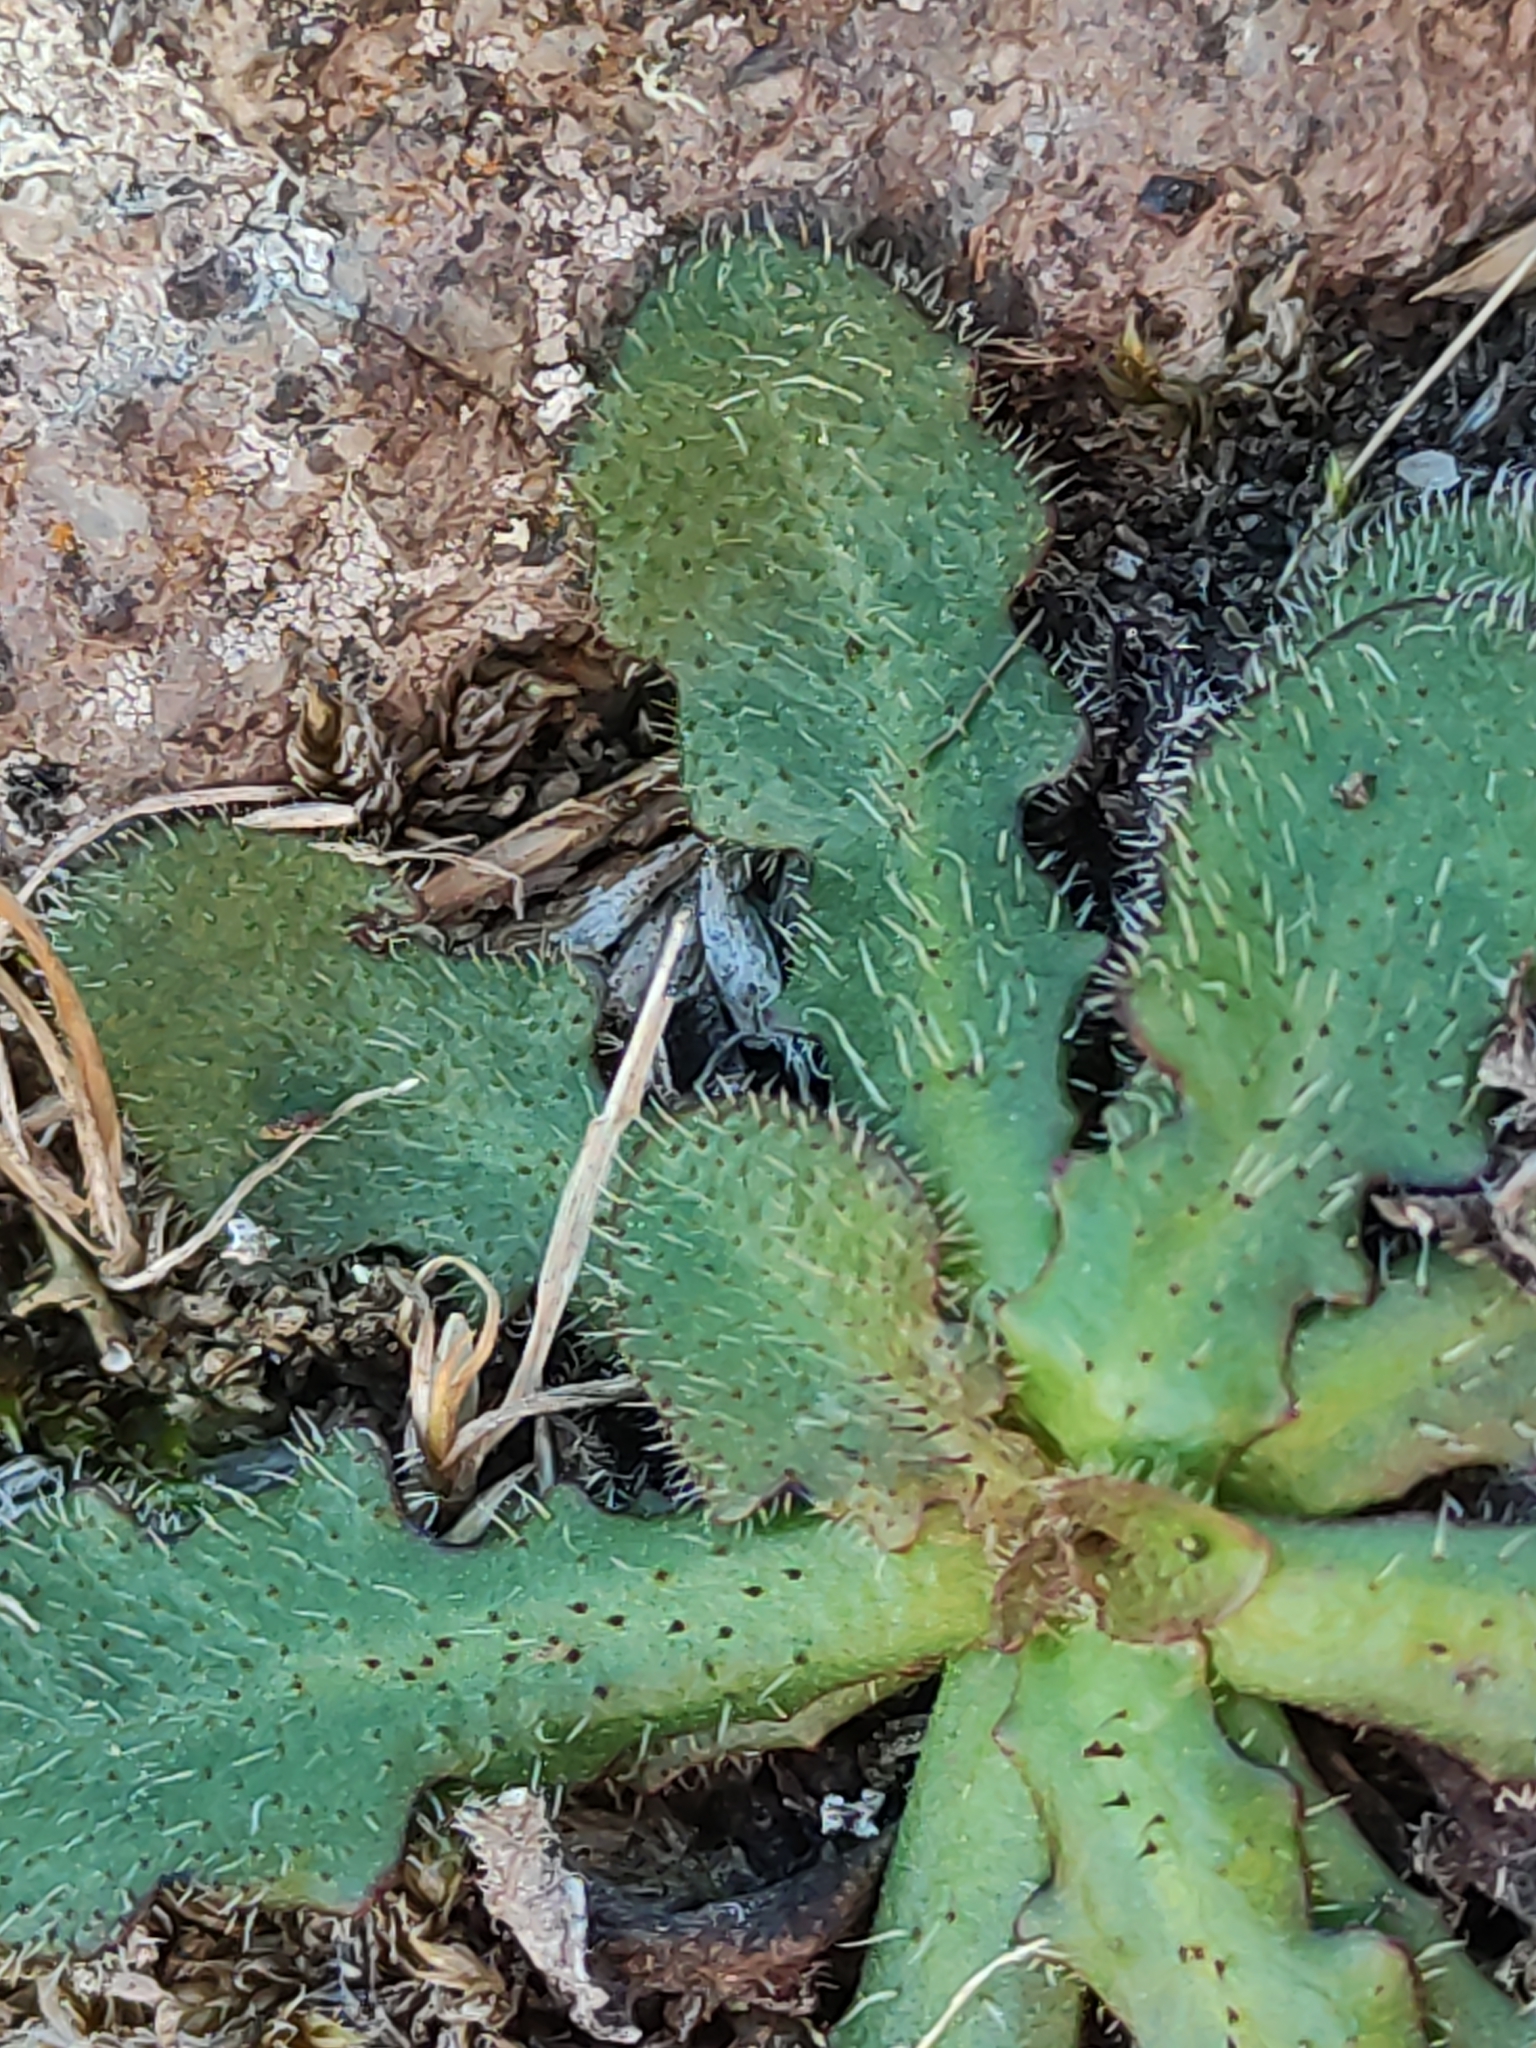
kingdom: Plantae
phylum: Tracheophyta
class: Magnoliopsida
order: Asterales
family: Asteraceae
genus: Hypochaeris
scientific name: Hypochaeris radicata
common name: Flatweed
